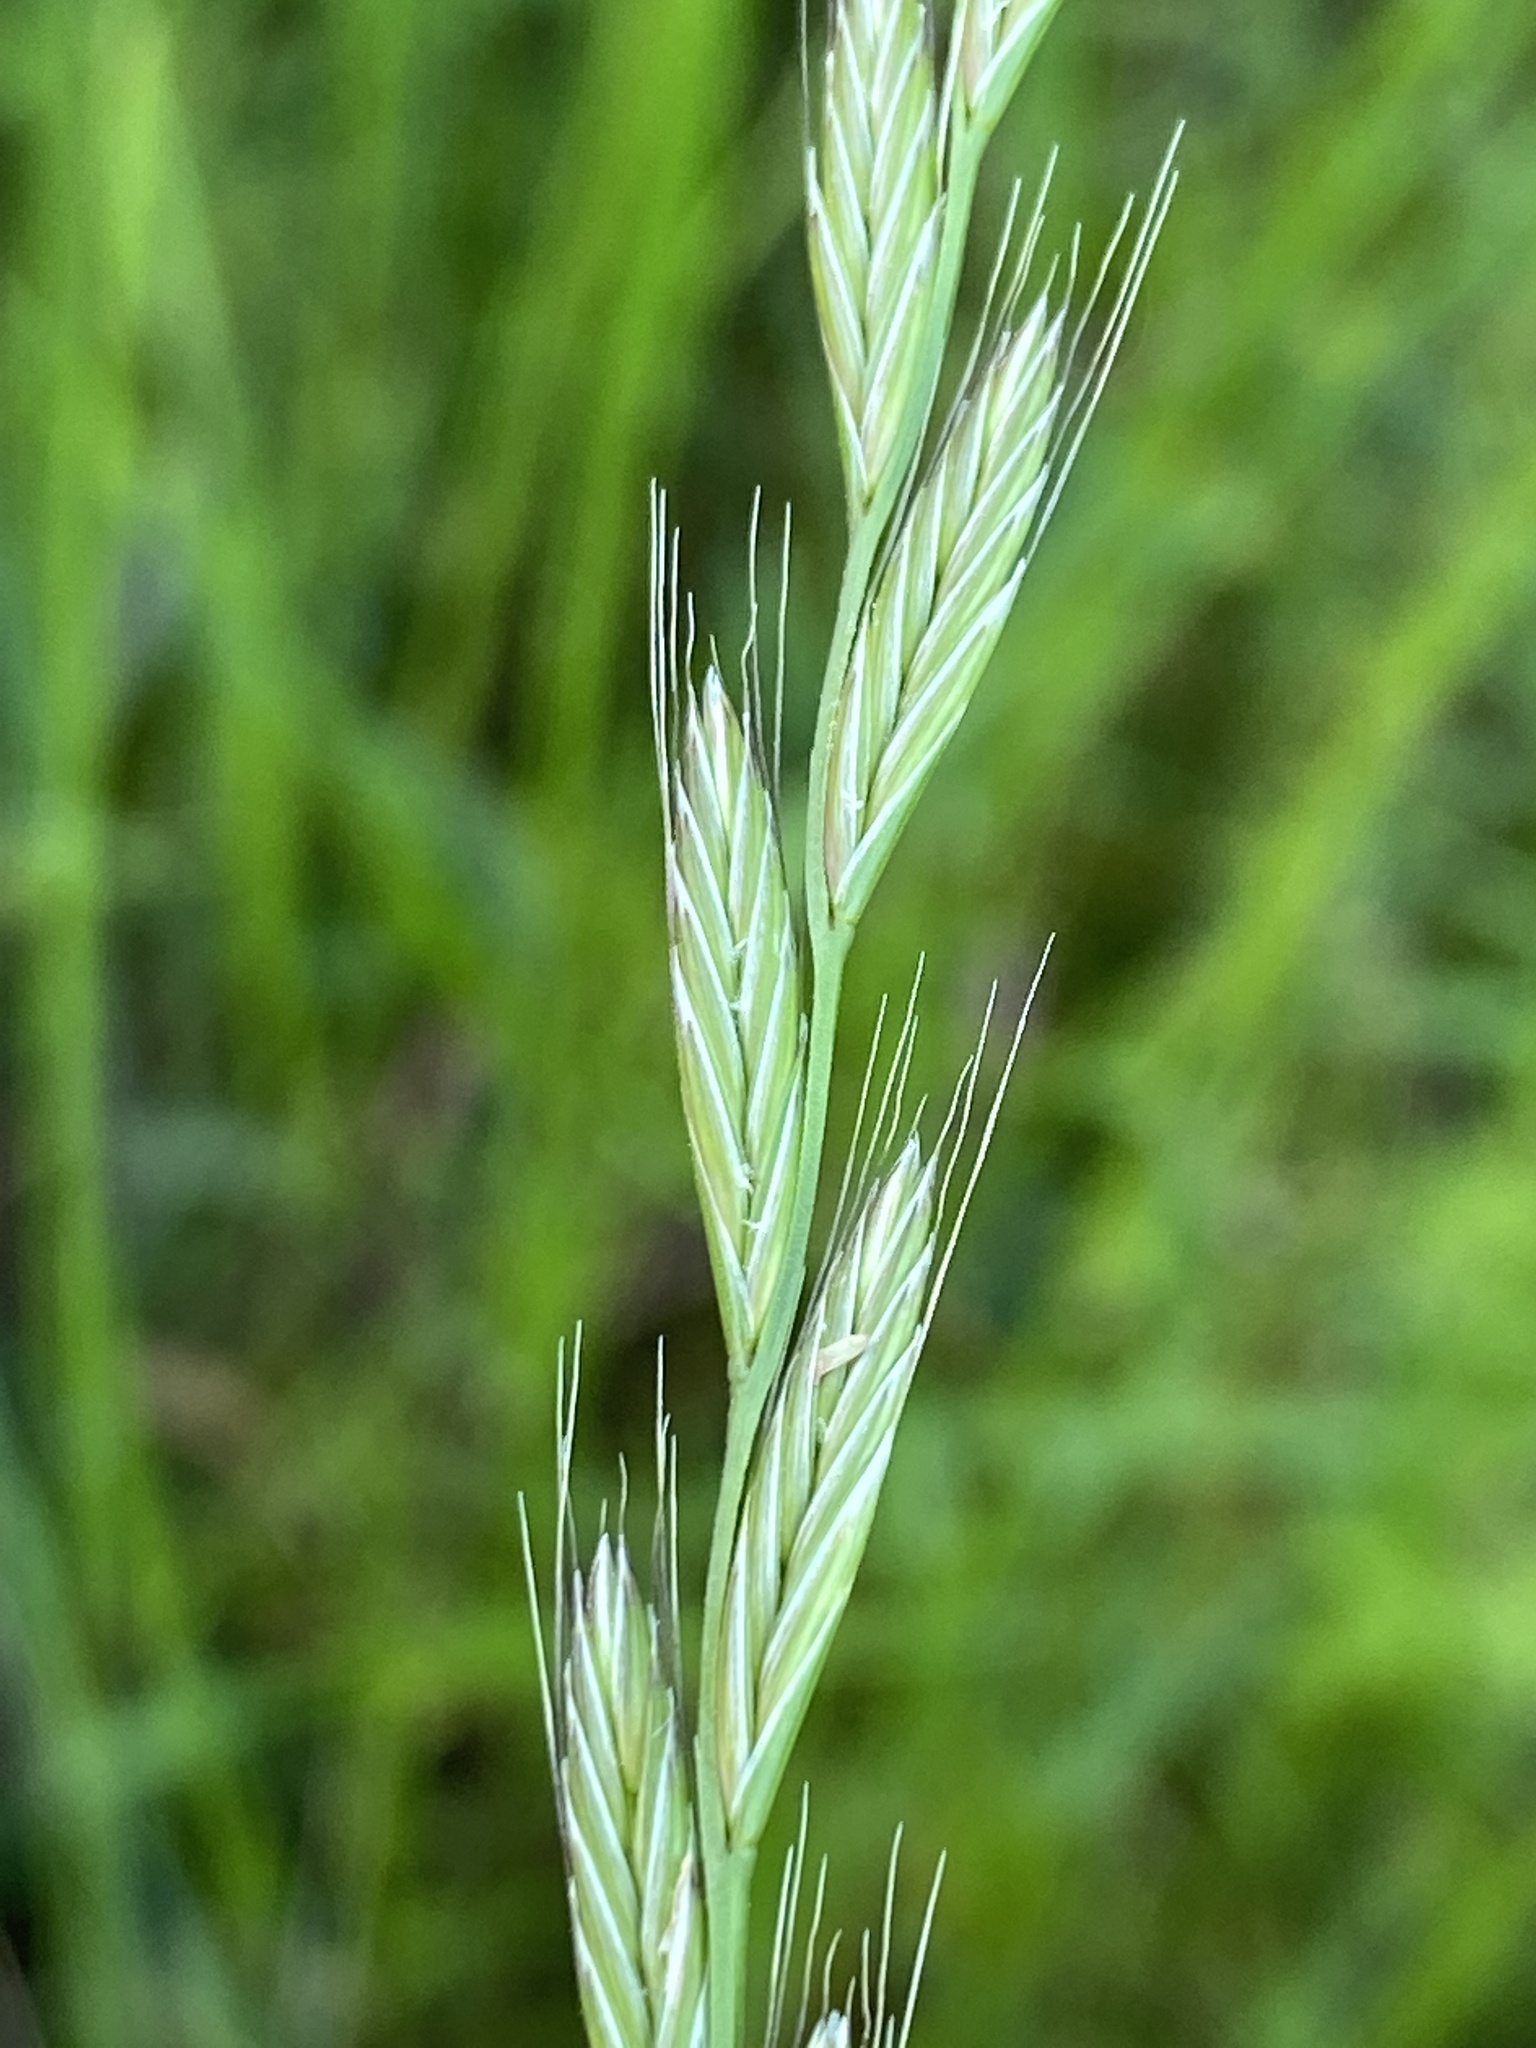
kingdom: Plantae
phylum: Tracheophyta
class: Liliopsida
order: Poales
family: Poaceae
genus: Lolium
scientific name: Lolium multiflorum
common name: Annual ryegrass
